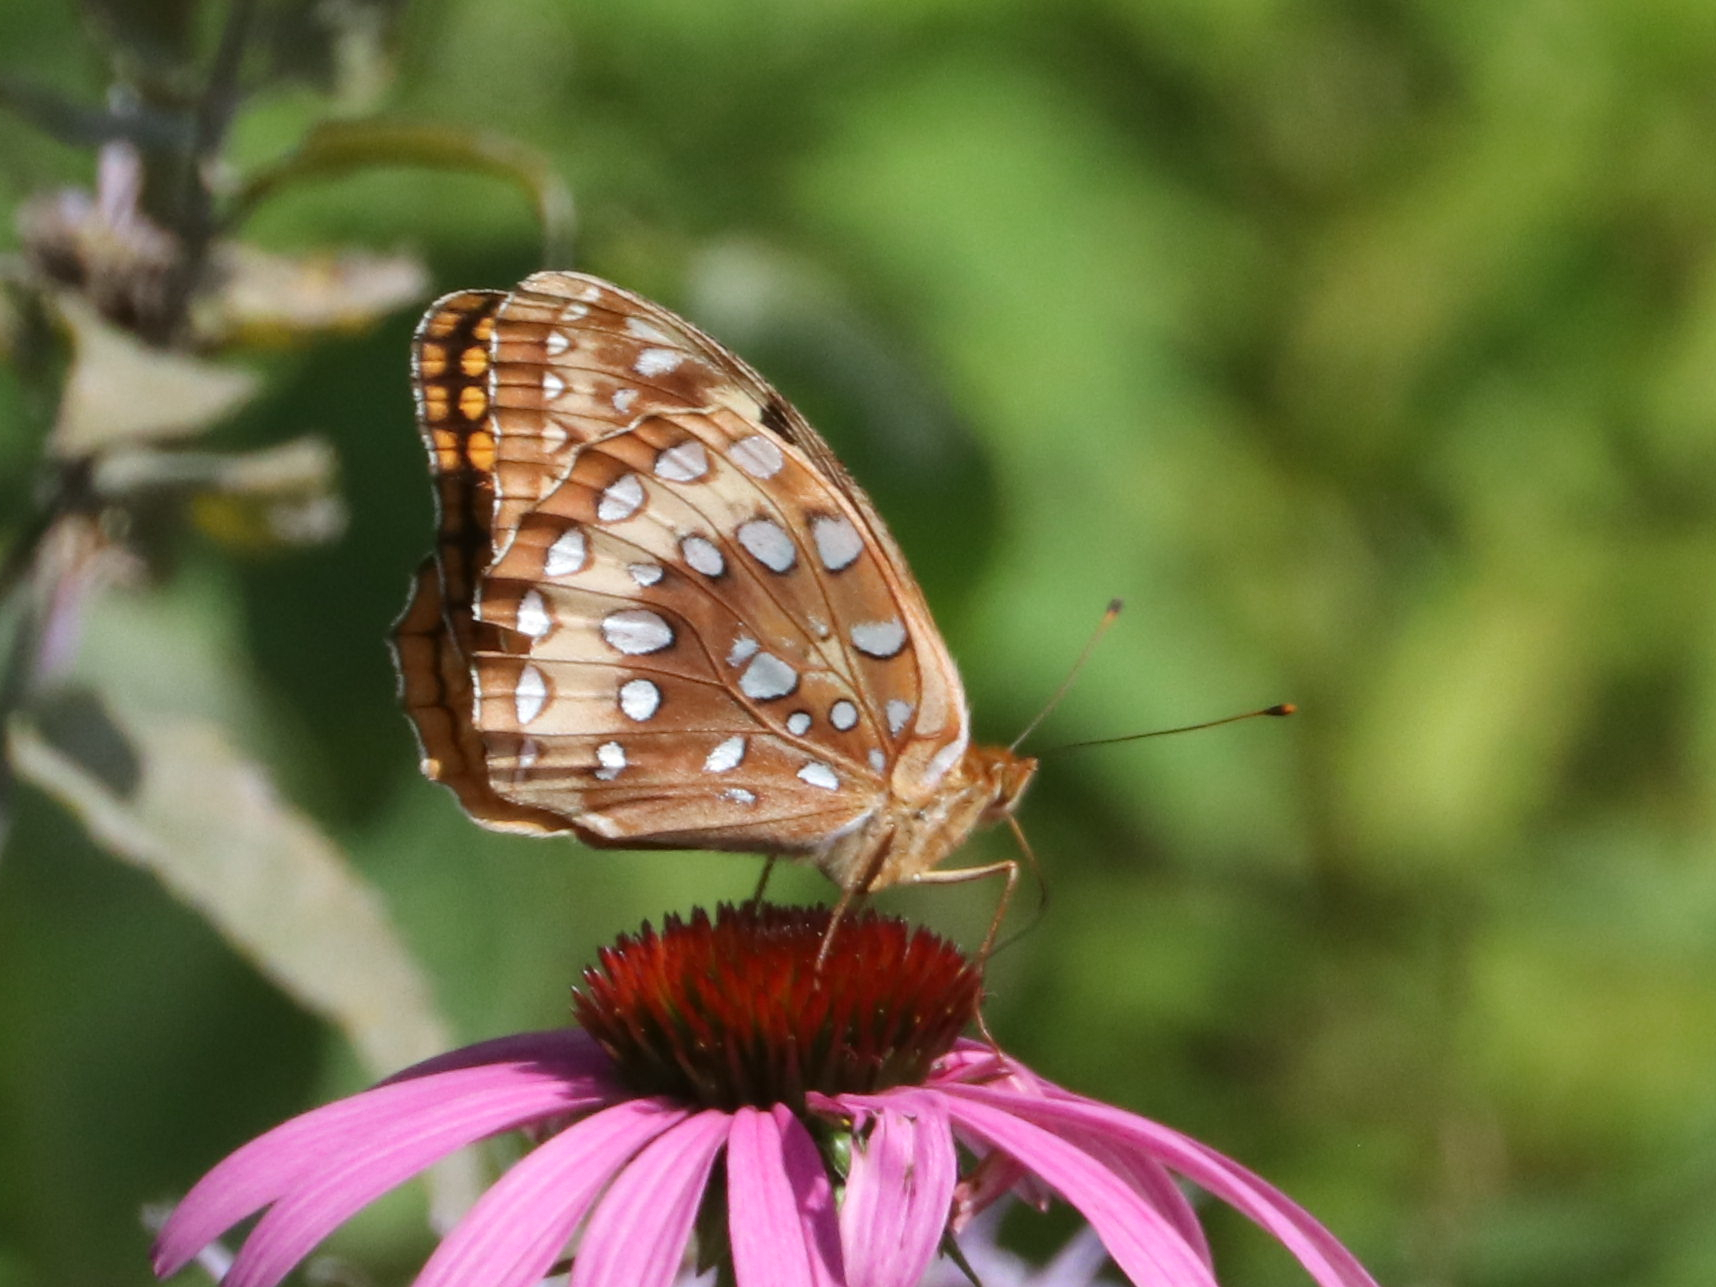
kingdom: Animalia
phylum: Arthropoda
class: Insecta
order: Lepidoptera
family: Nymphalidae
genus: Speyeria
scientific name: Speyeria cybele
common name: Great spangled fritillary
